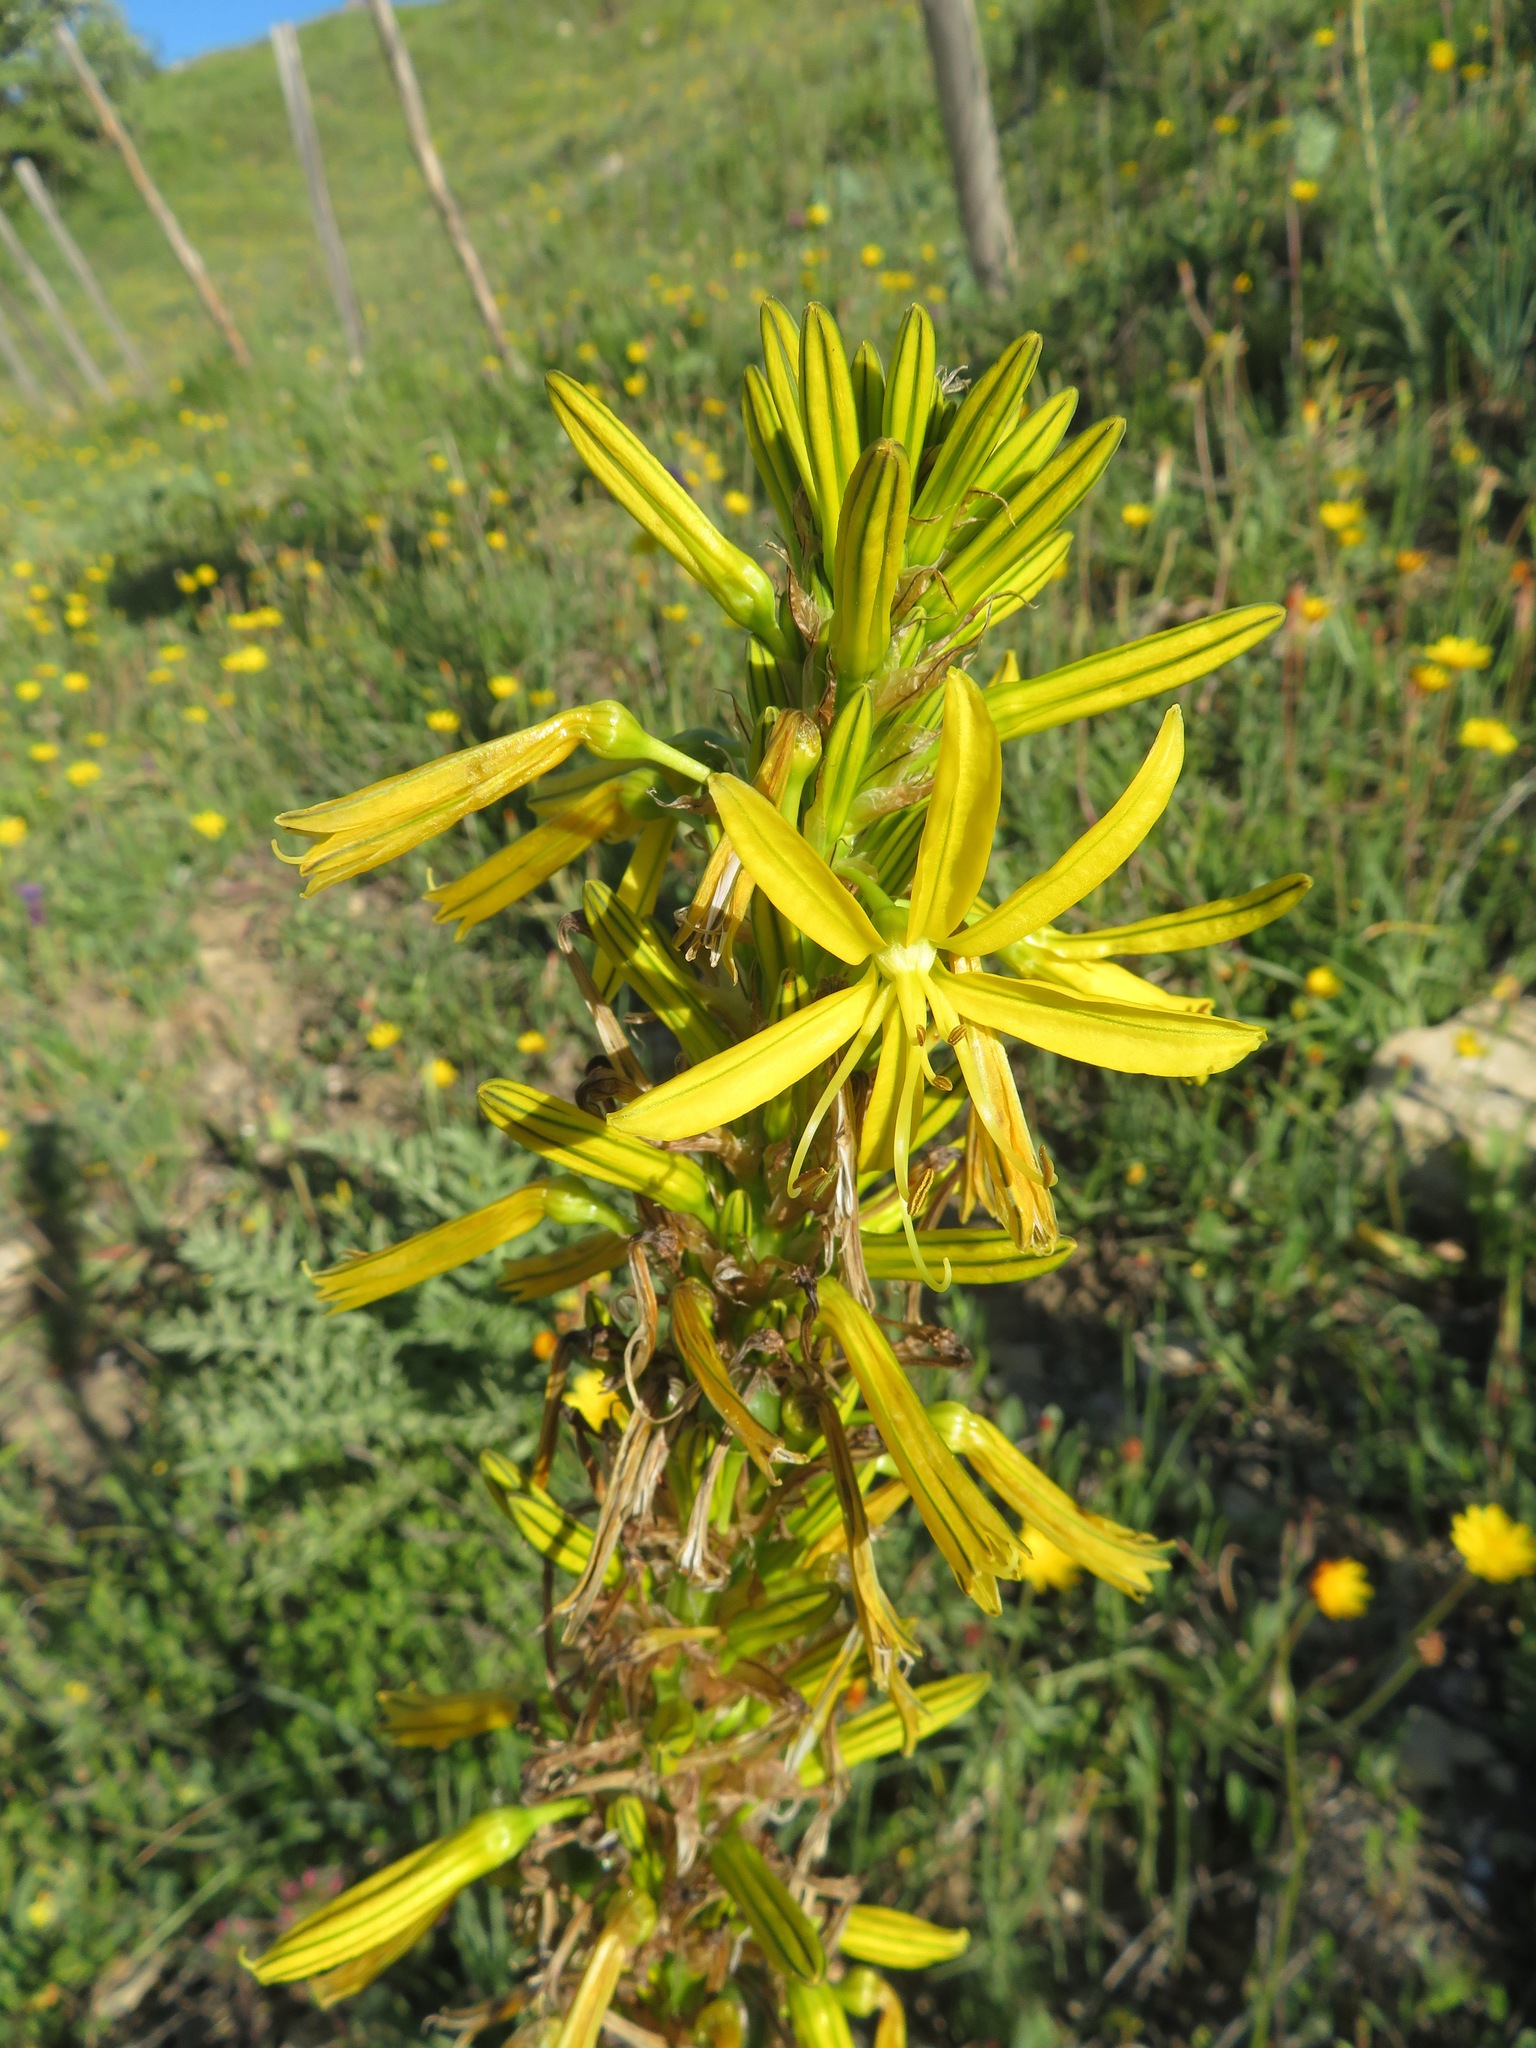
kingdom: Plantae
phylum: Tracheophyta
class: Liliopsida
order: Asparagales
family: Asphodelaceae
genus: Asphodeline
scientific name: Asphodeline lutea
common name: Yellow asphodel
